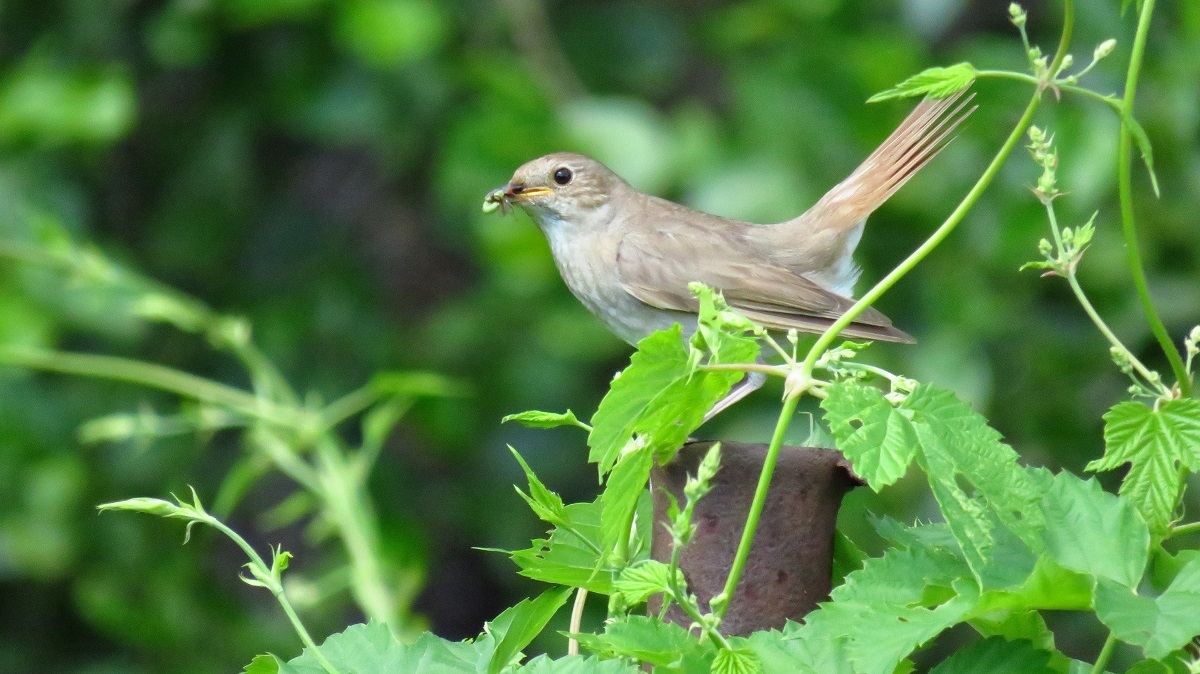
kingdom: Animalia
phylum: Chordata
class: Aves
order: Passeriformes
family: Muscicapidae
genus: Luscinia
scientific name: Luscinia luscinia
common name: Thrush nightingale
